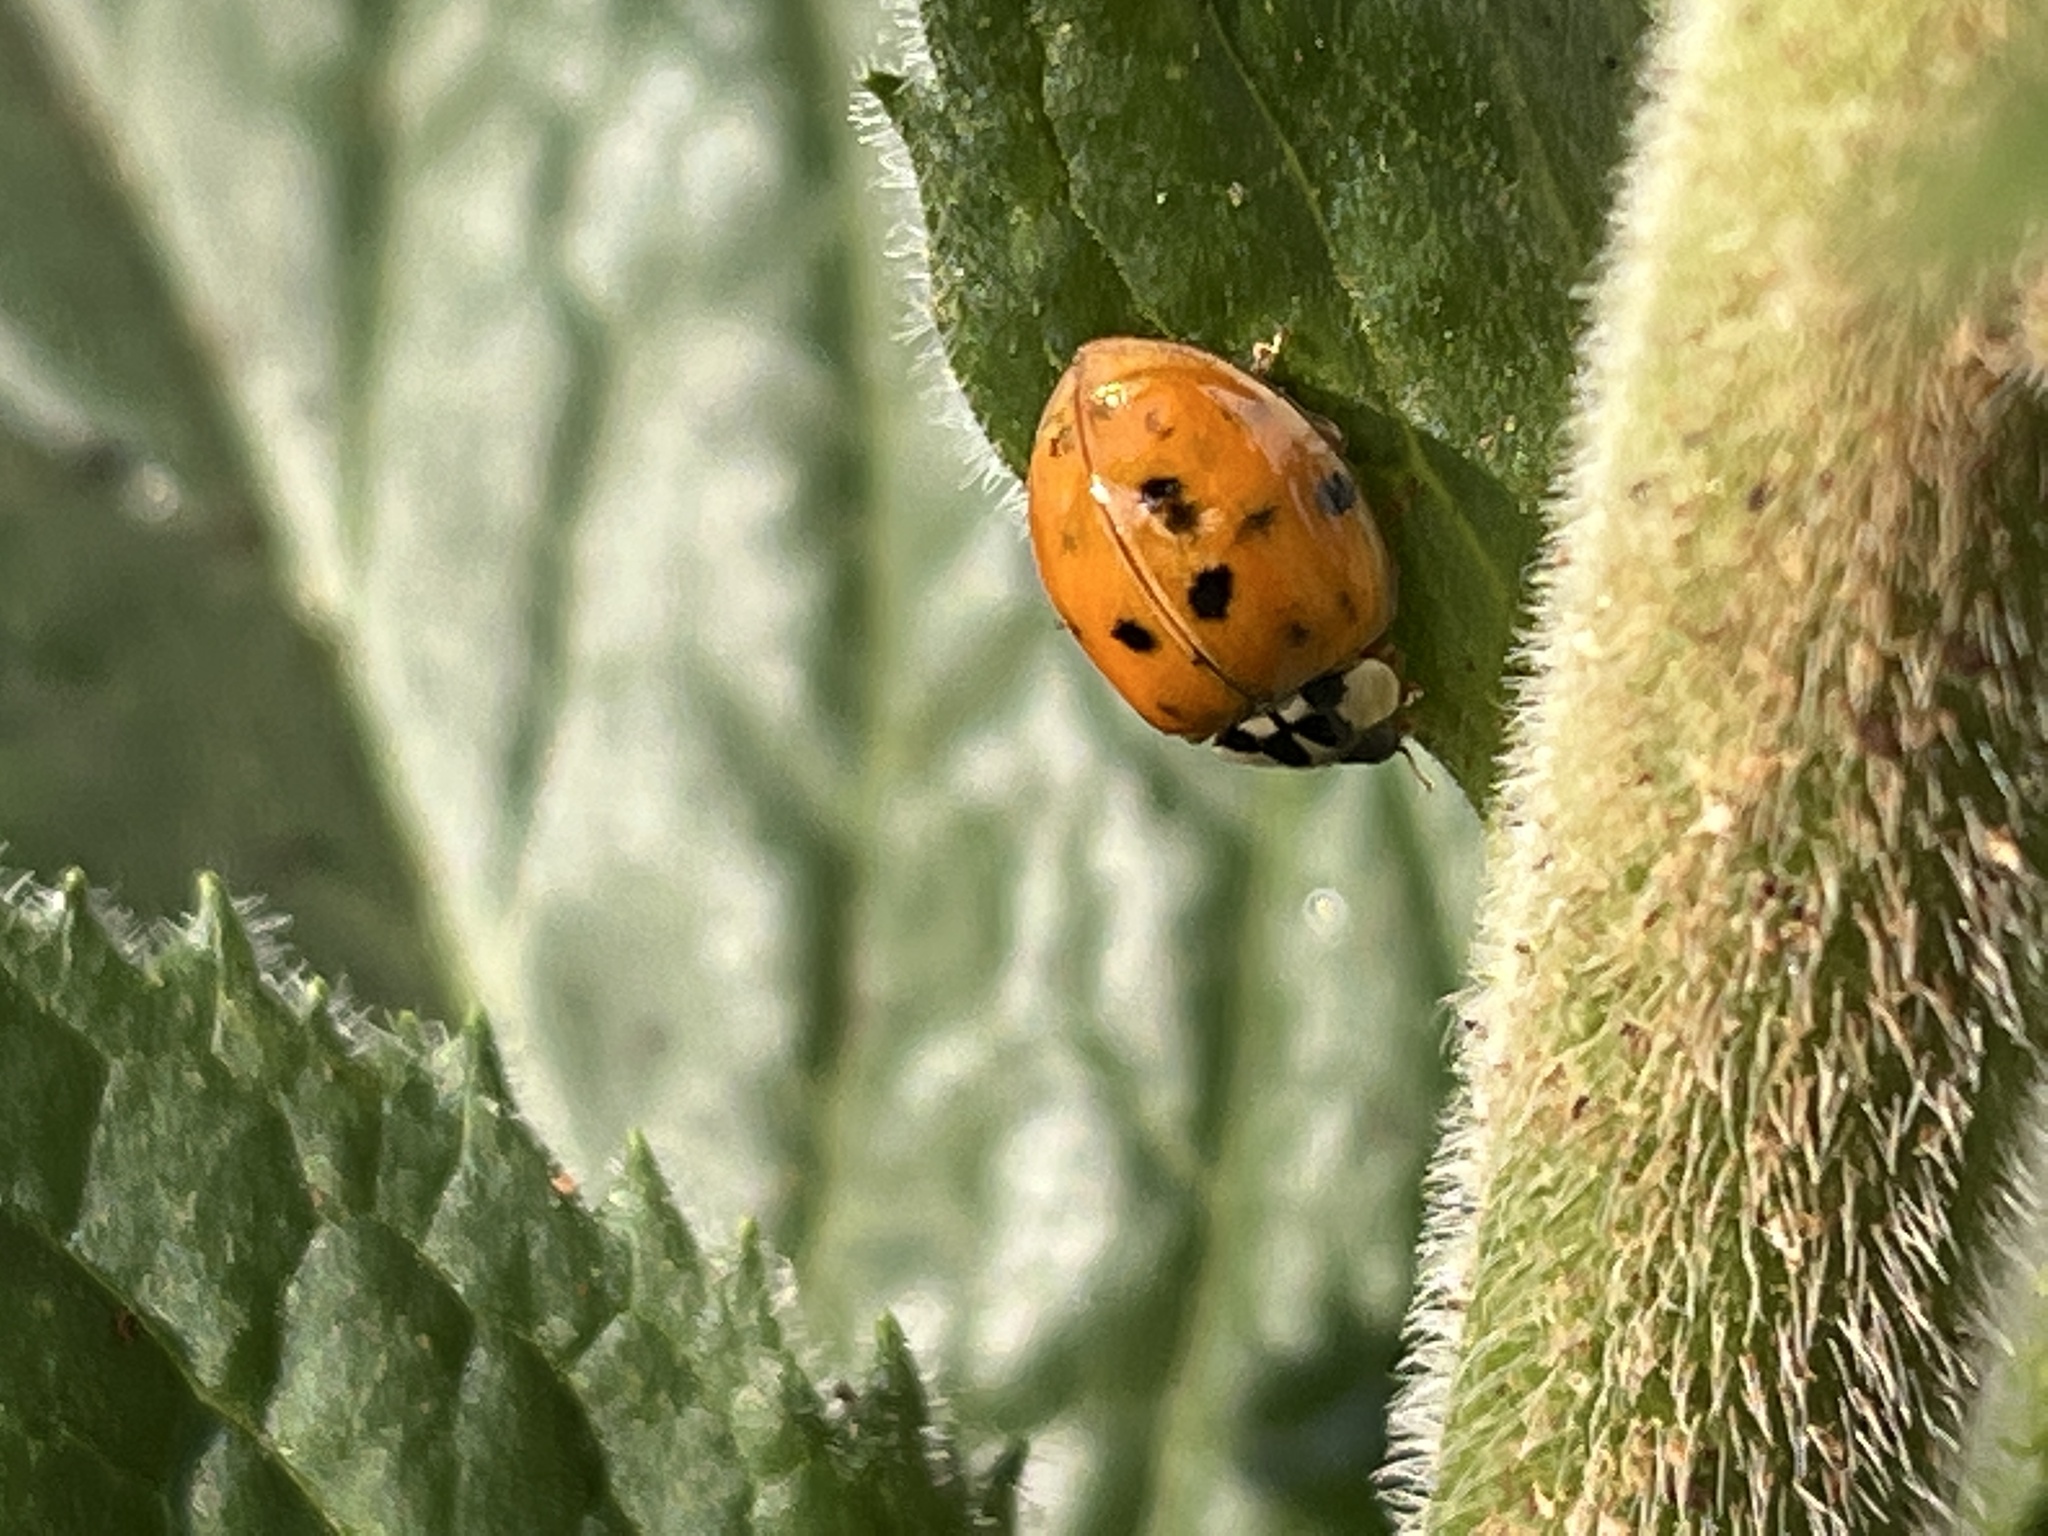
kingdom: Animalia
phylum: Arthropoda
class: Insecta
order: Coleoptera
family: Coccinellidae
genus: Harmonia
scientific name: Harmonia axyridis
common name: Harlequin ladybird
